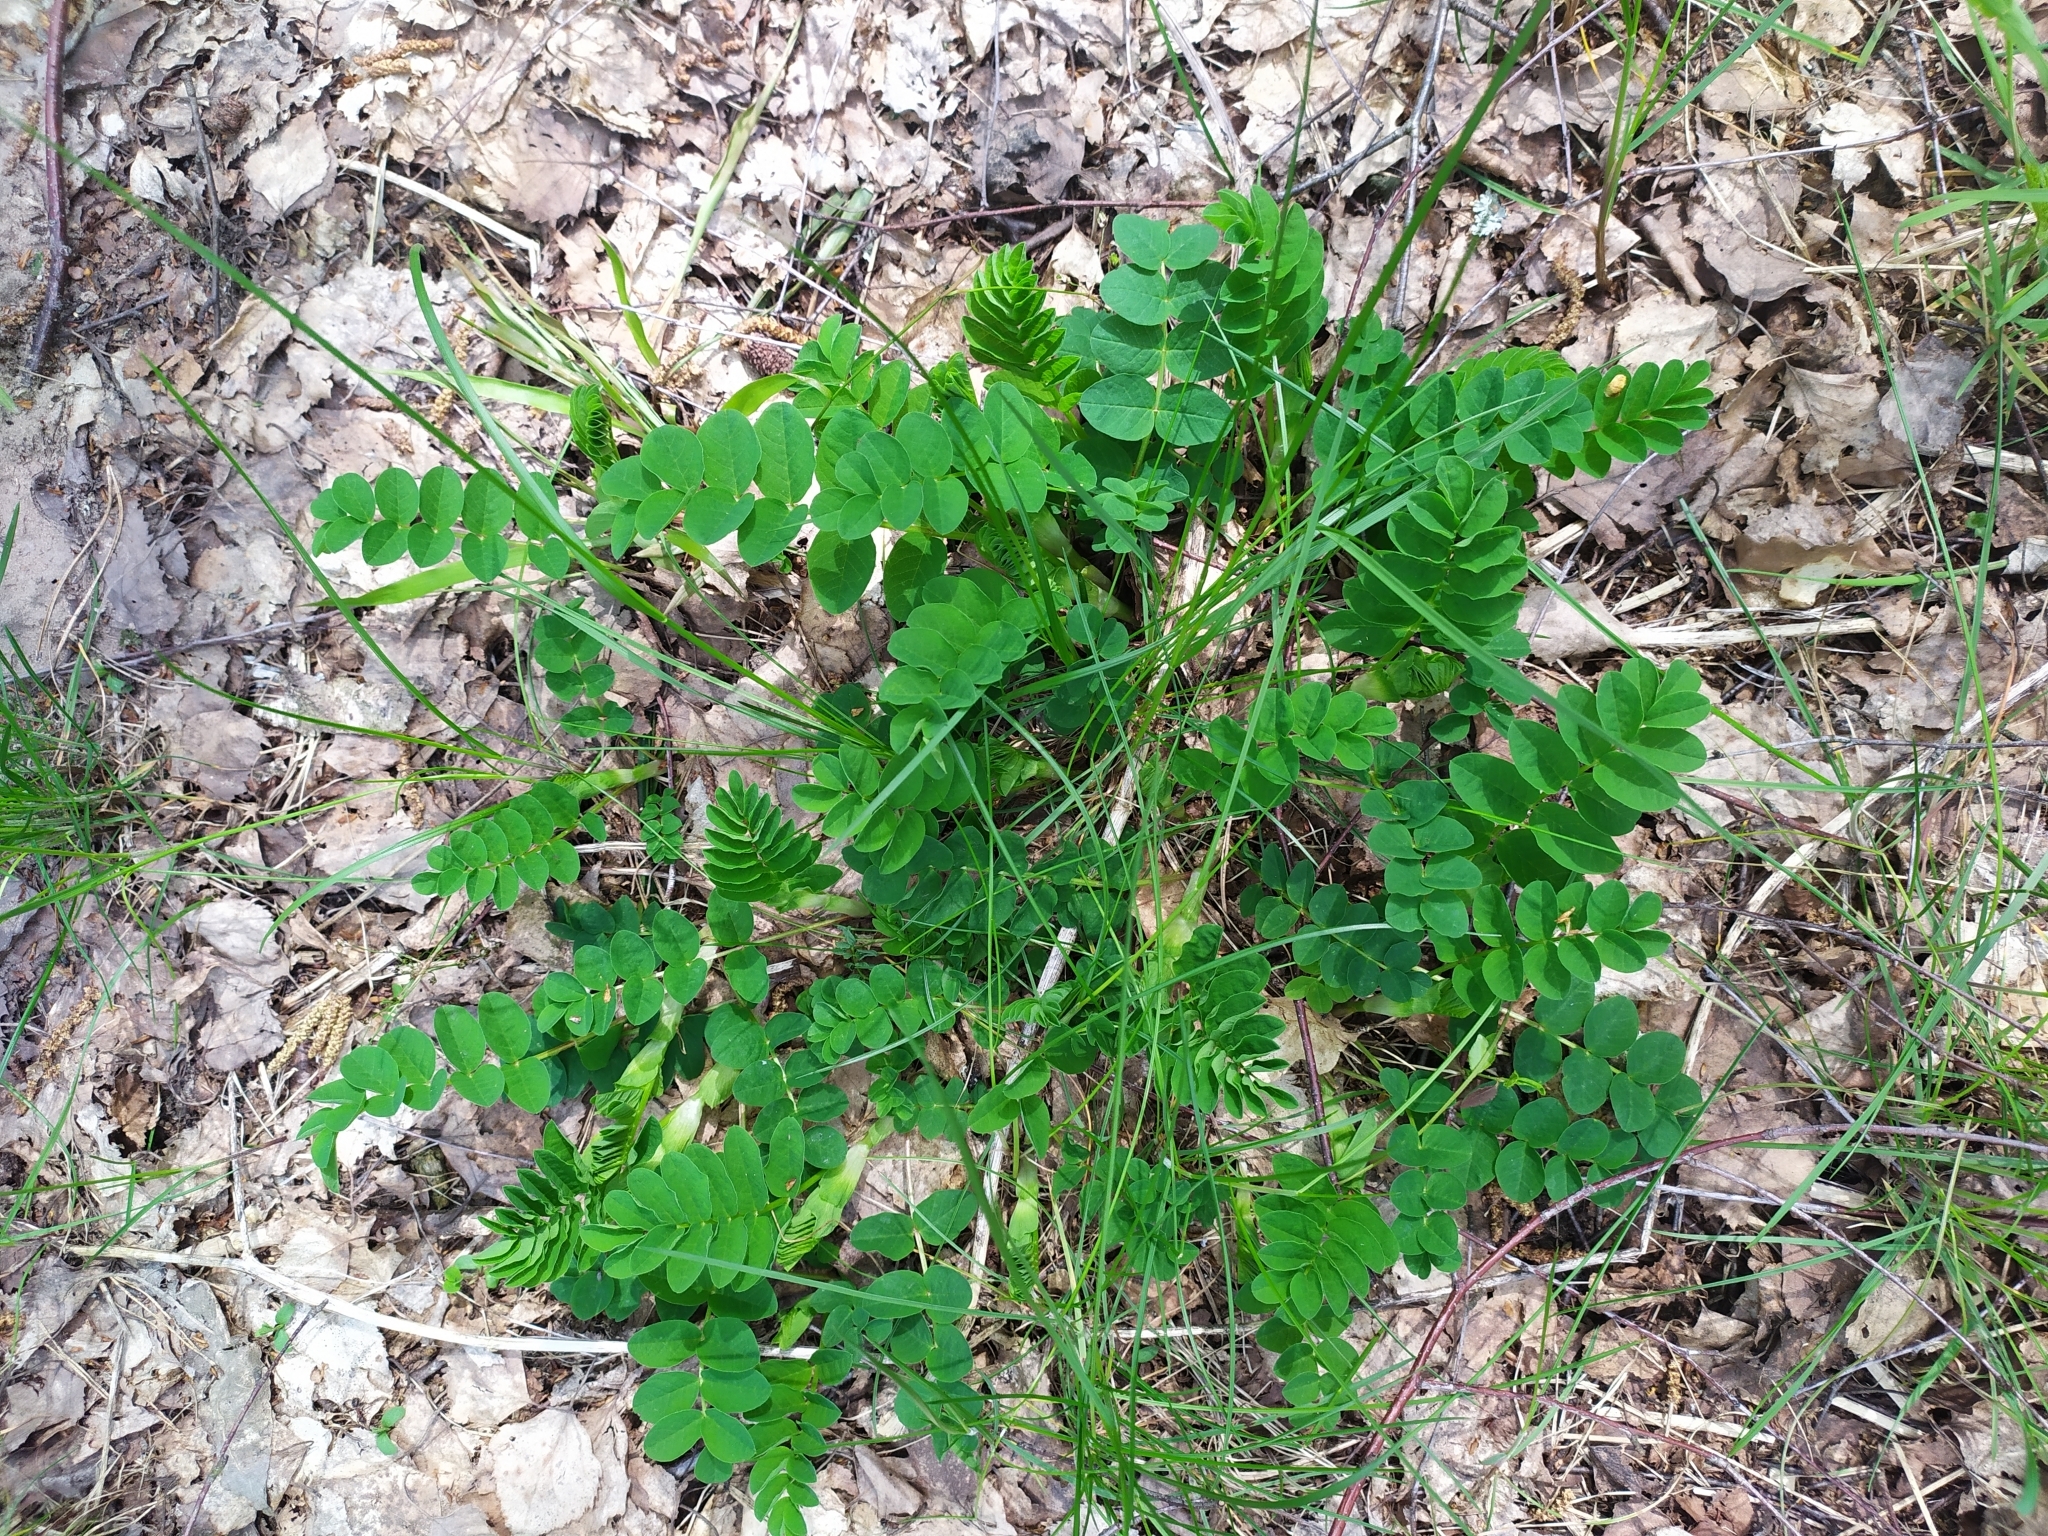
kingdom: Plantae
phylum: Tracheophyta
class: Magnoliopsida
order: Fabales
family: Fabaceae
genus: Astragalus
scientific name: Astragalus glycyphyllos
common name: Wild liquorice
